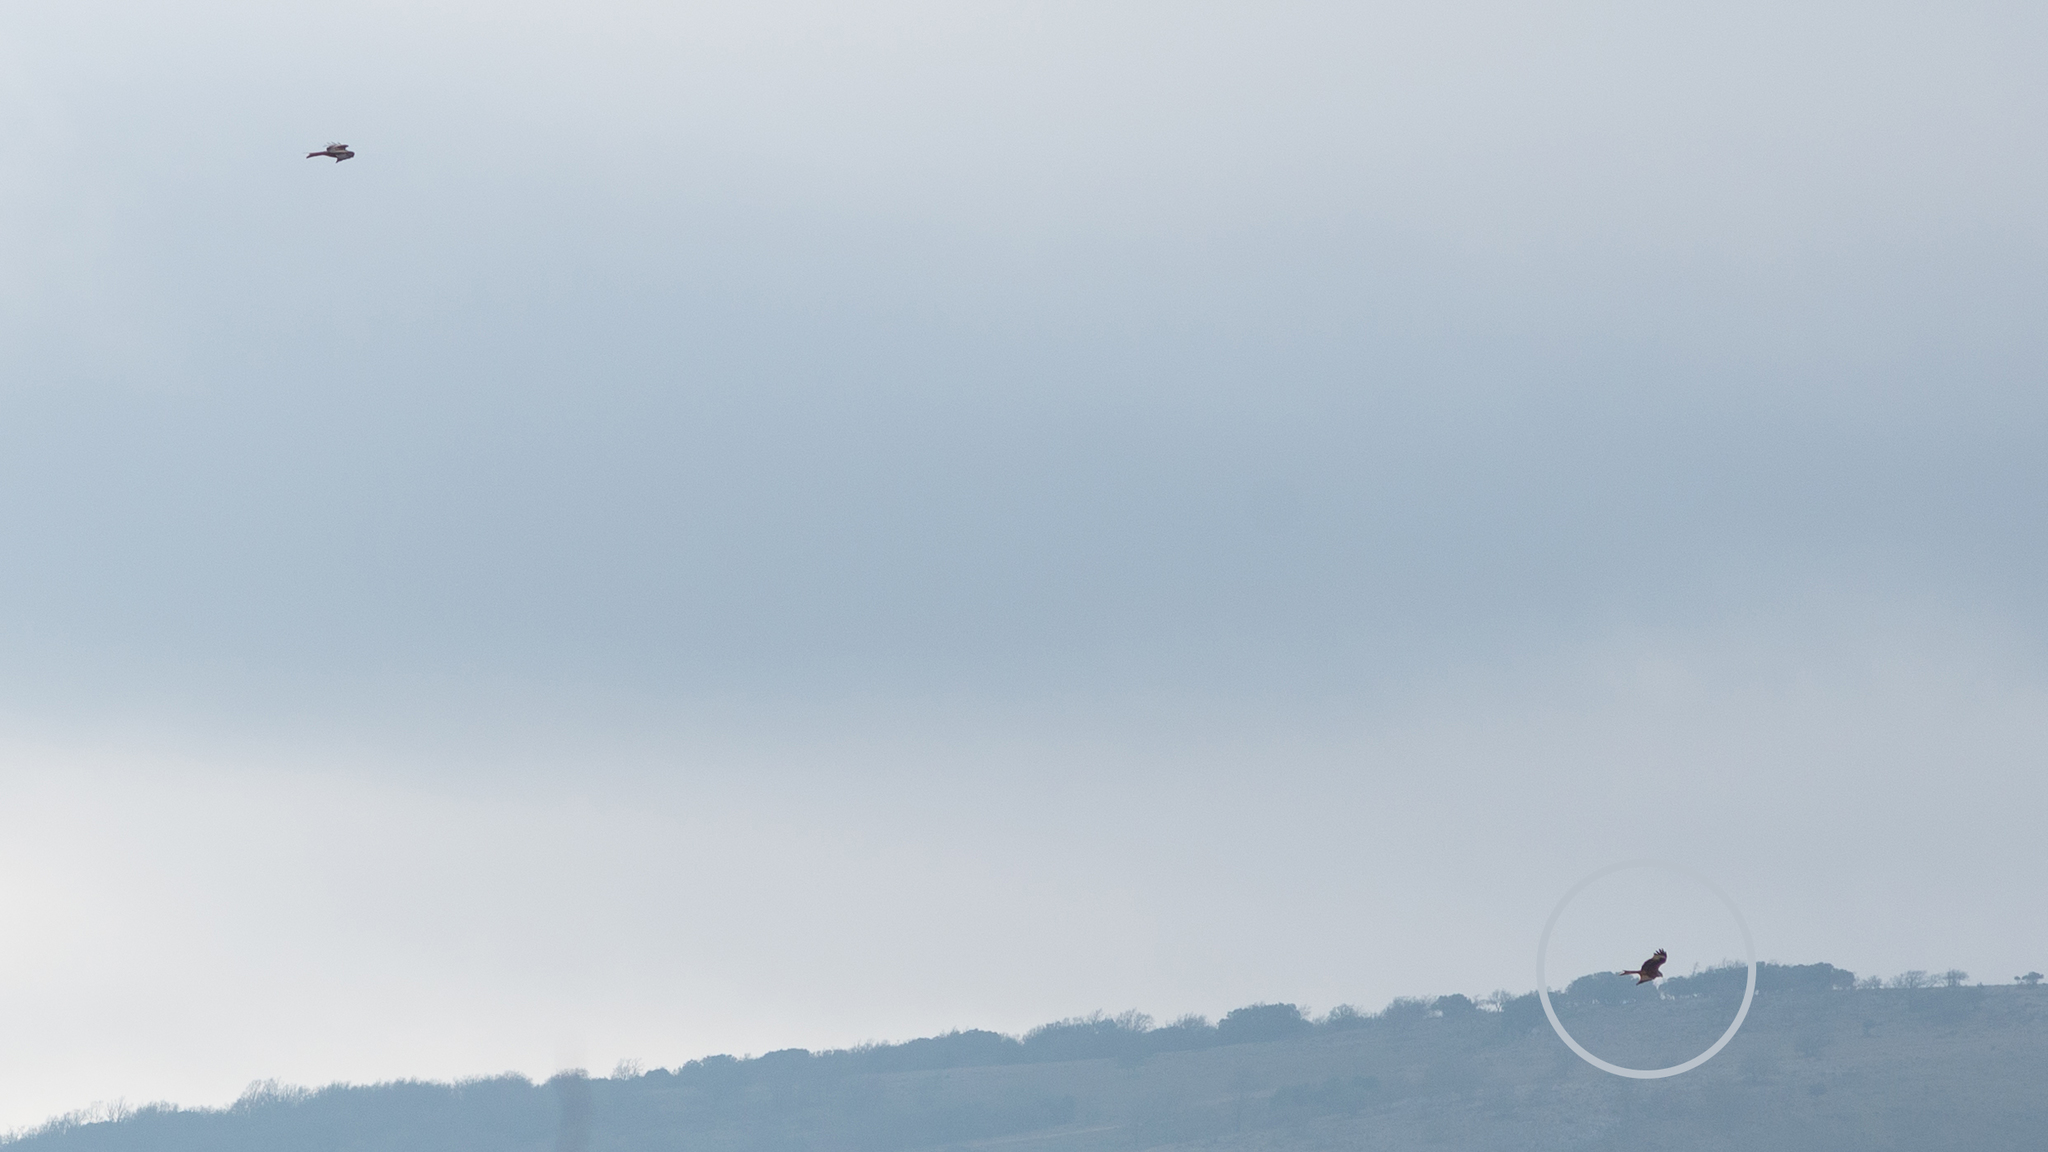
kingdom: Animalia
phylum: Chordata
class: Aves
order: Accipitriformes
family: Accipitridae
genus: Milvus
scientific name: Milvus milvus
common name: Red kite
